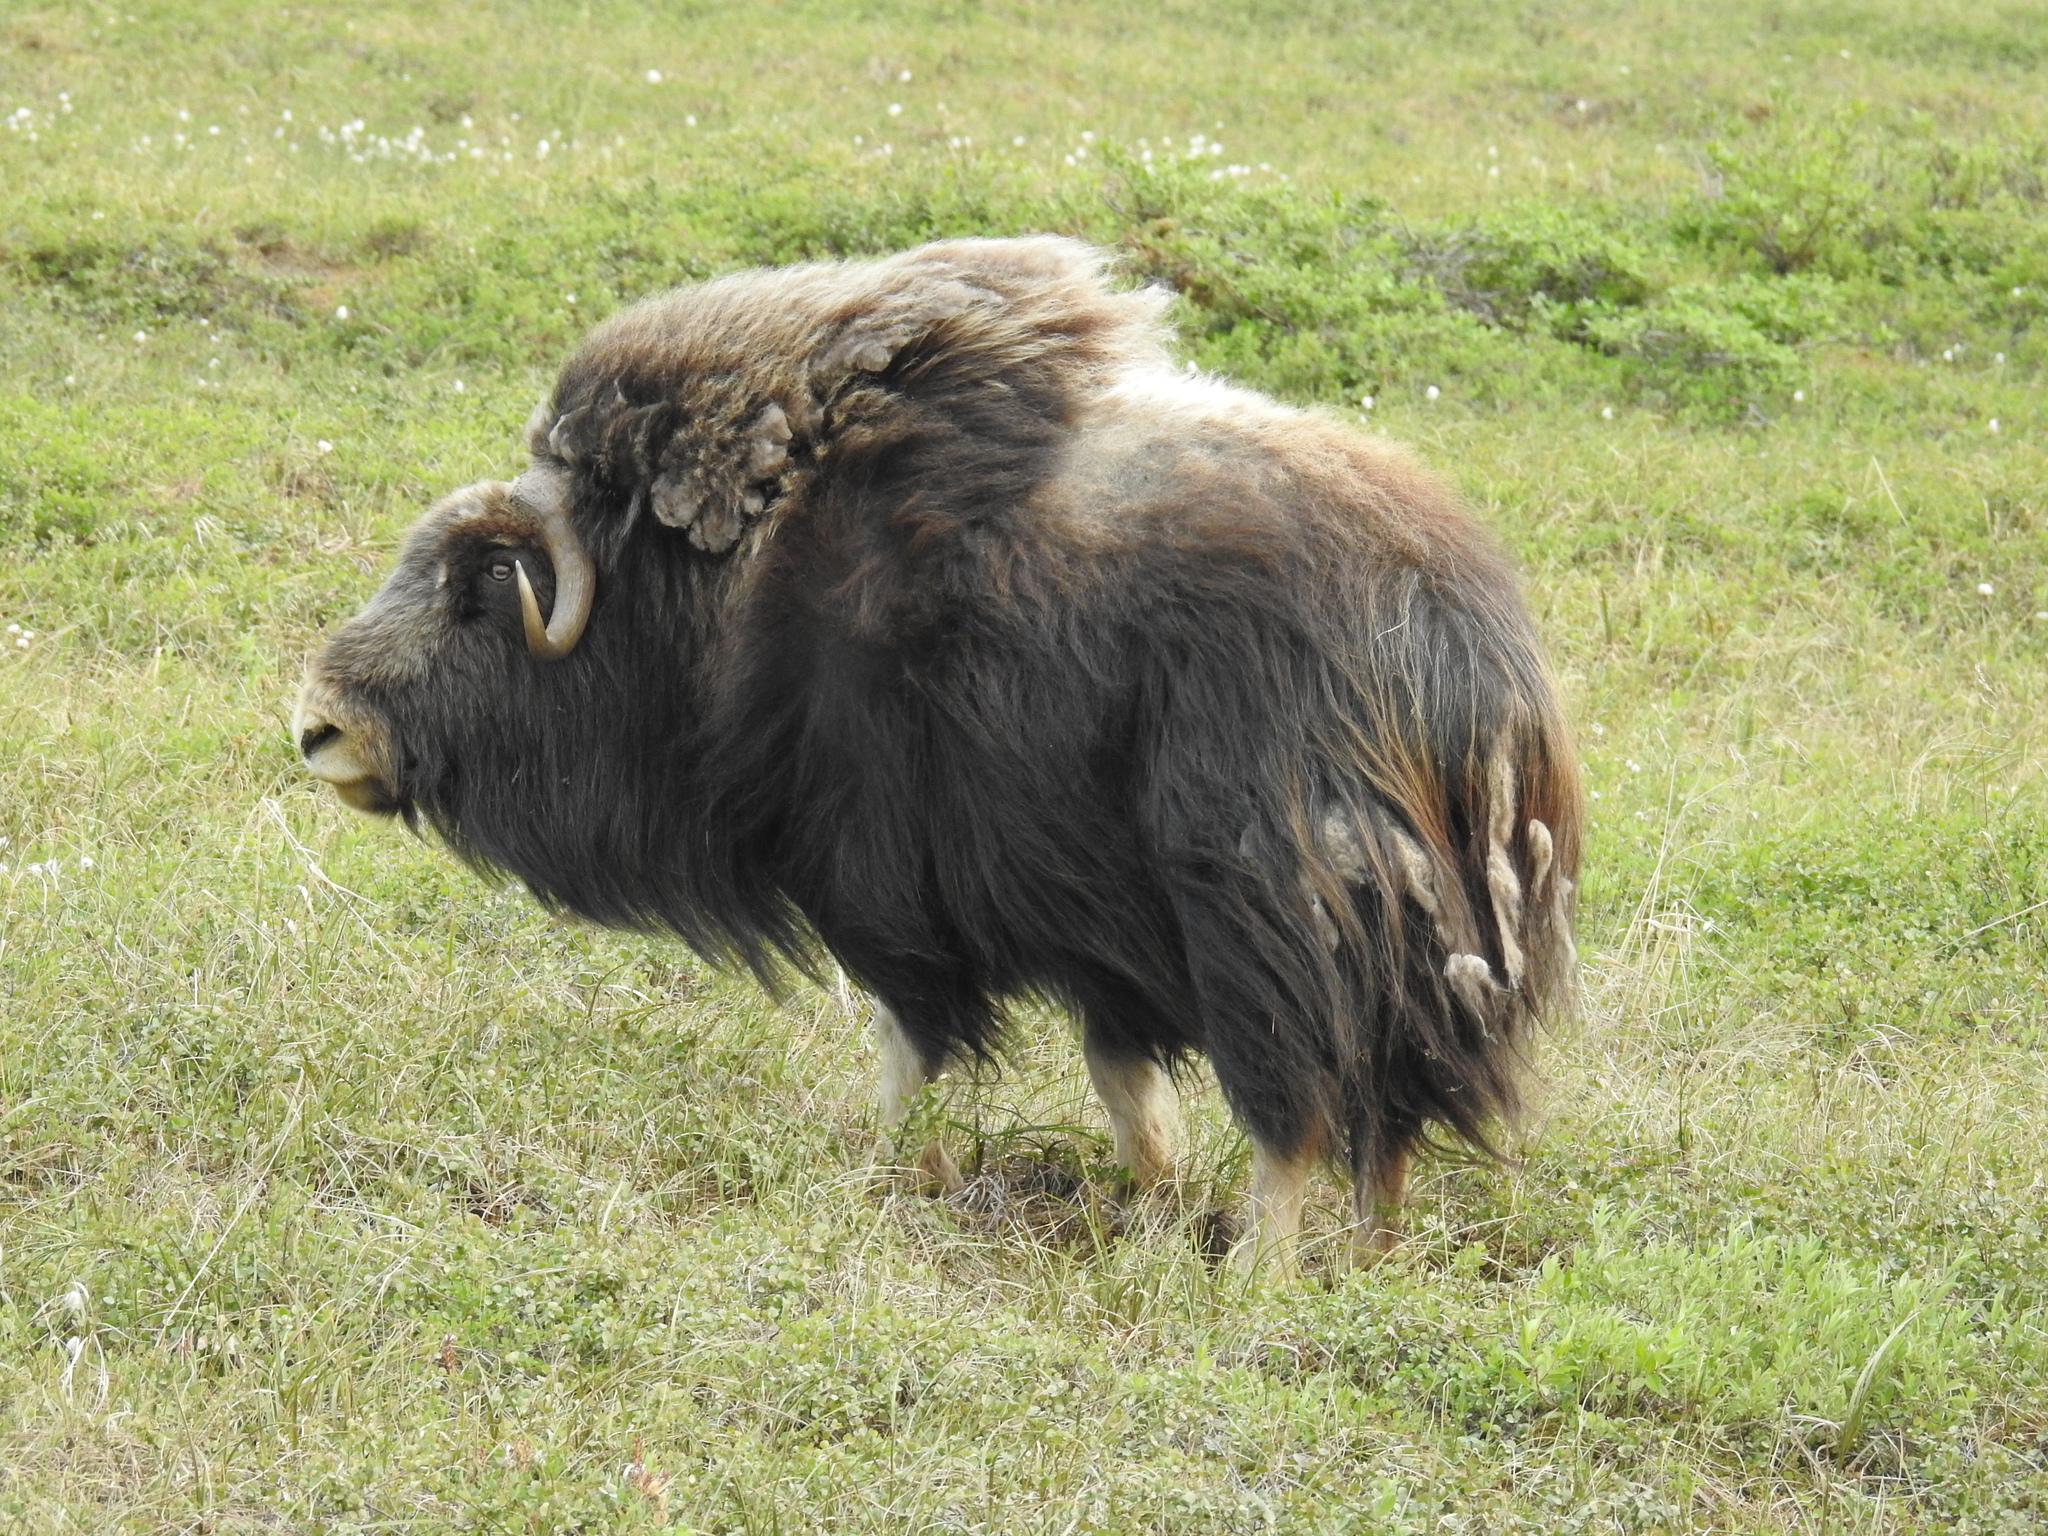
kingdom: Animalia
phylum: Chordata
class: Mammalia
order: Artiodactyla
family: Bovidae
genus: Ovibos
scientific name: Ovibos moschatus
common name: Muskox
